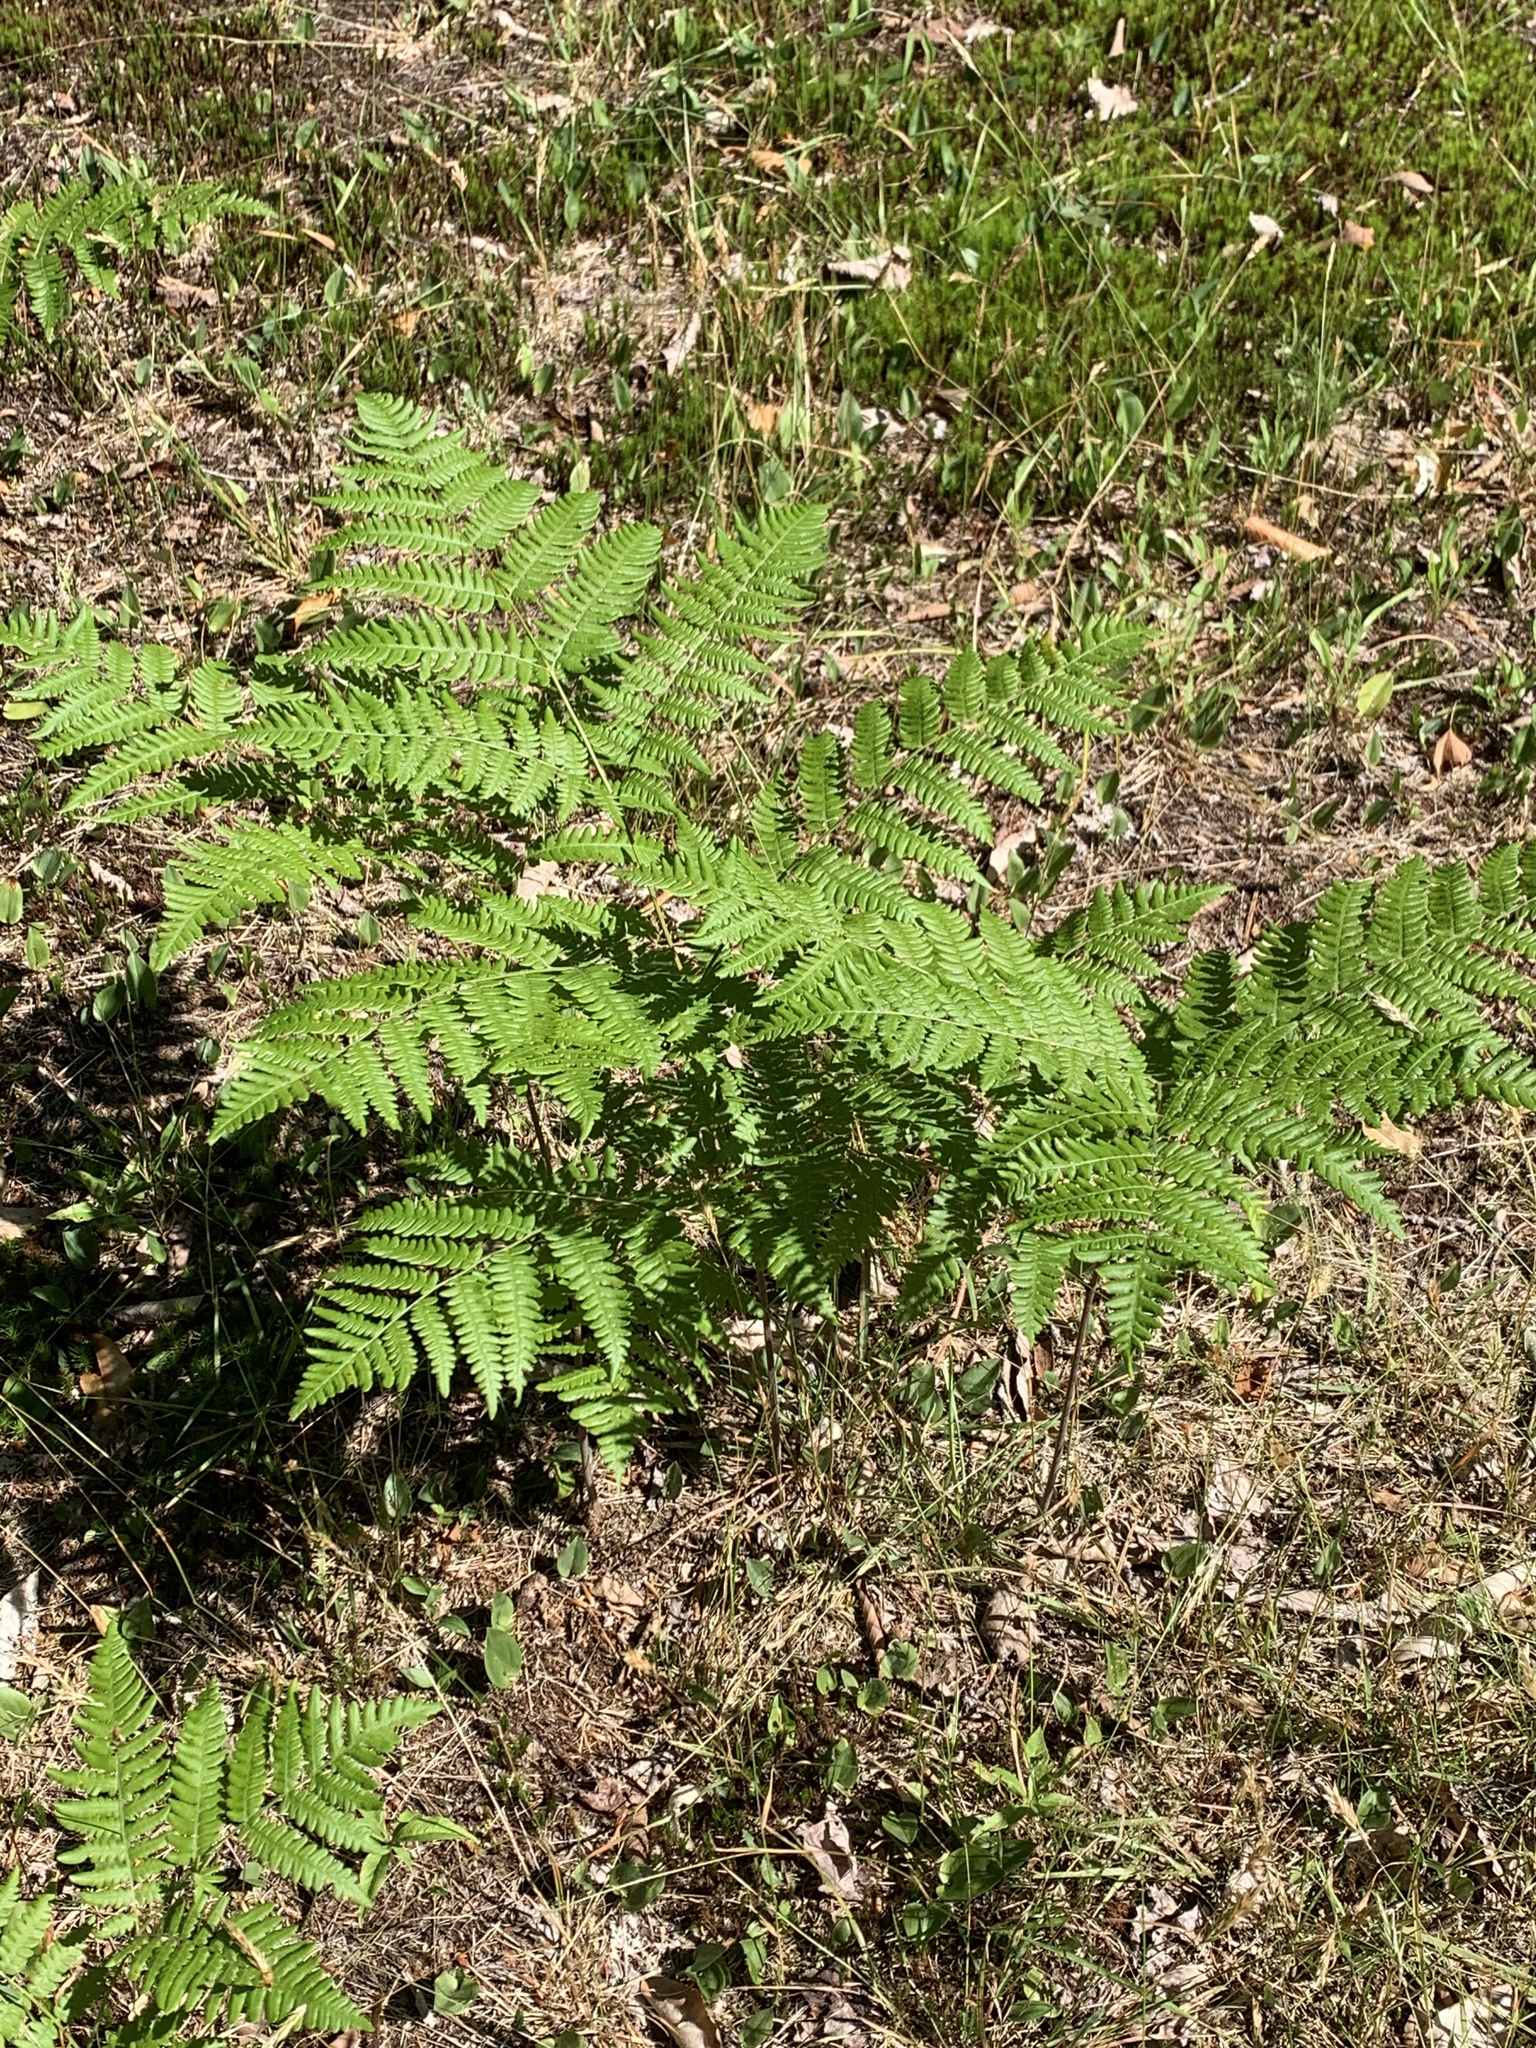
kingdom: Plantae
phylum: Tracheophyta
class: Polypodiopsida
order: Polypodiales
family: Dennstaedtiaceae
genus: Pteridium
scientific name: Pteridium aquilinum
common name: Bracken
